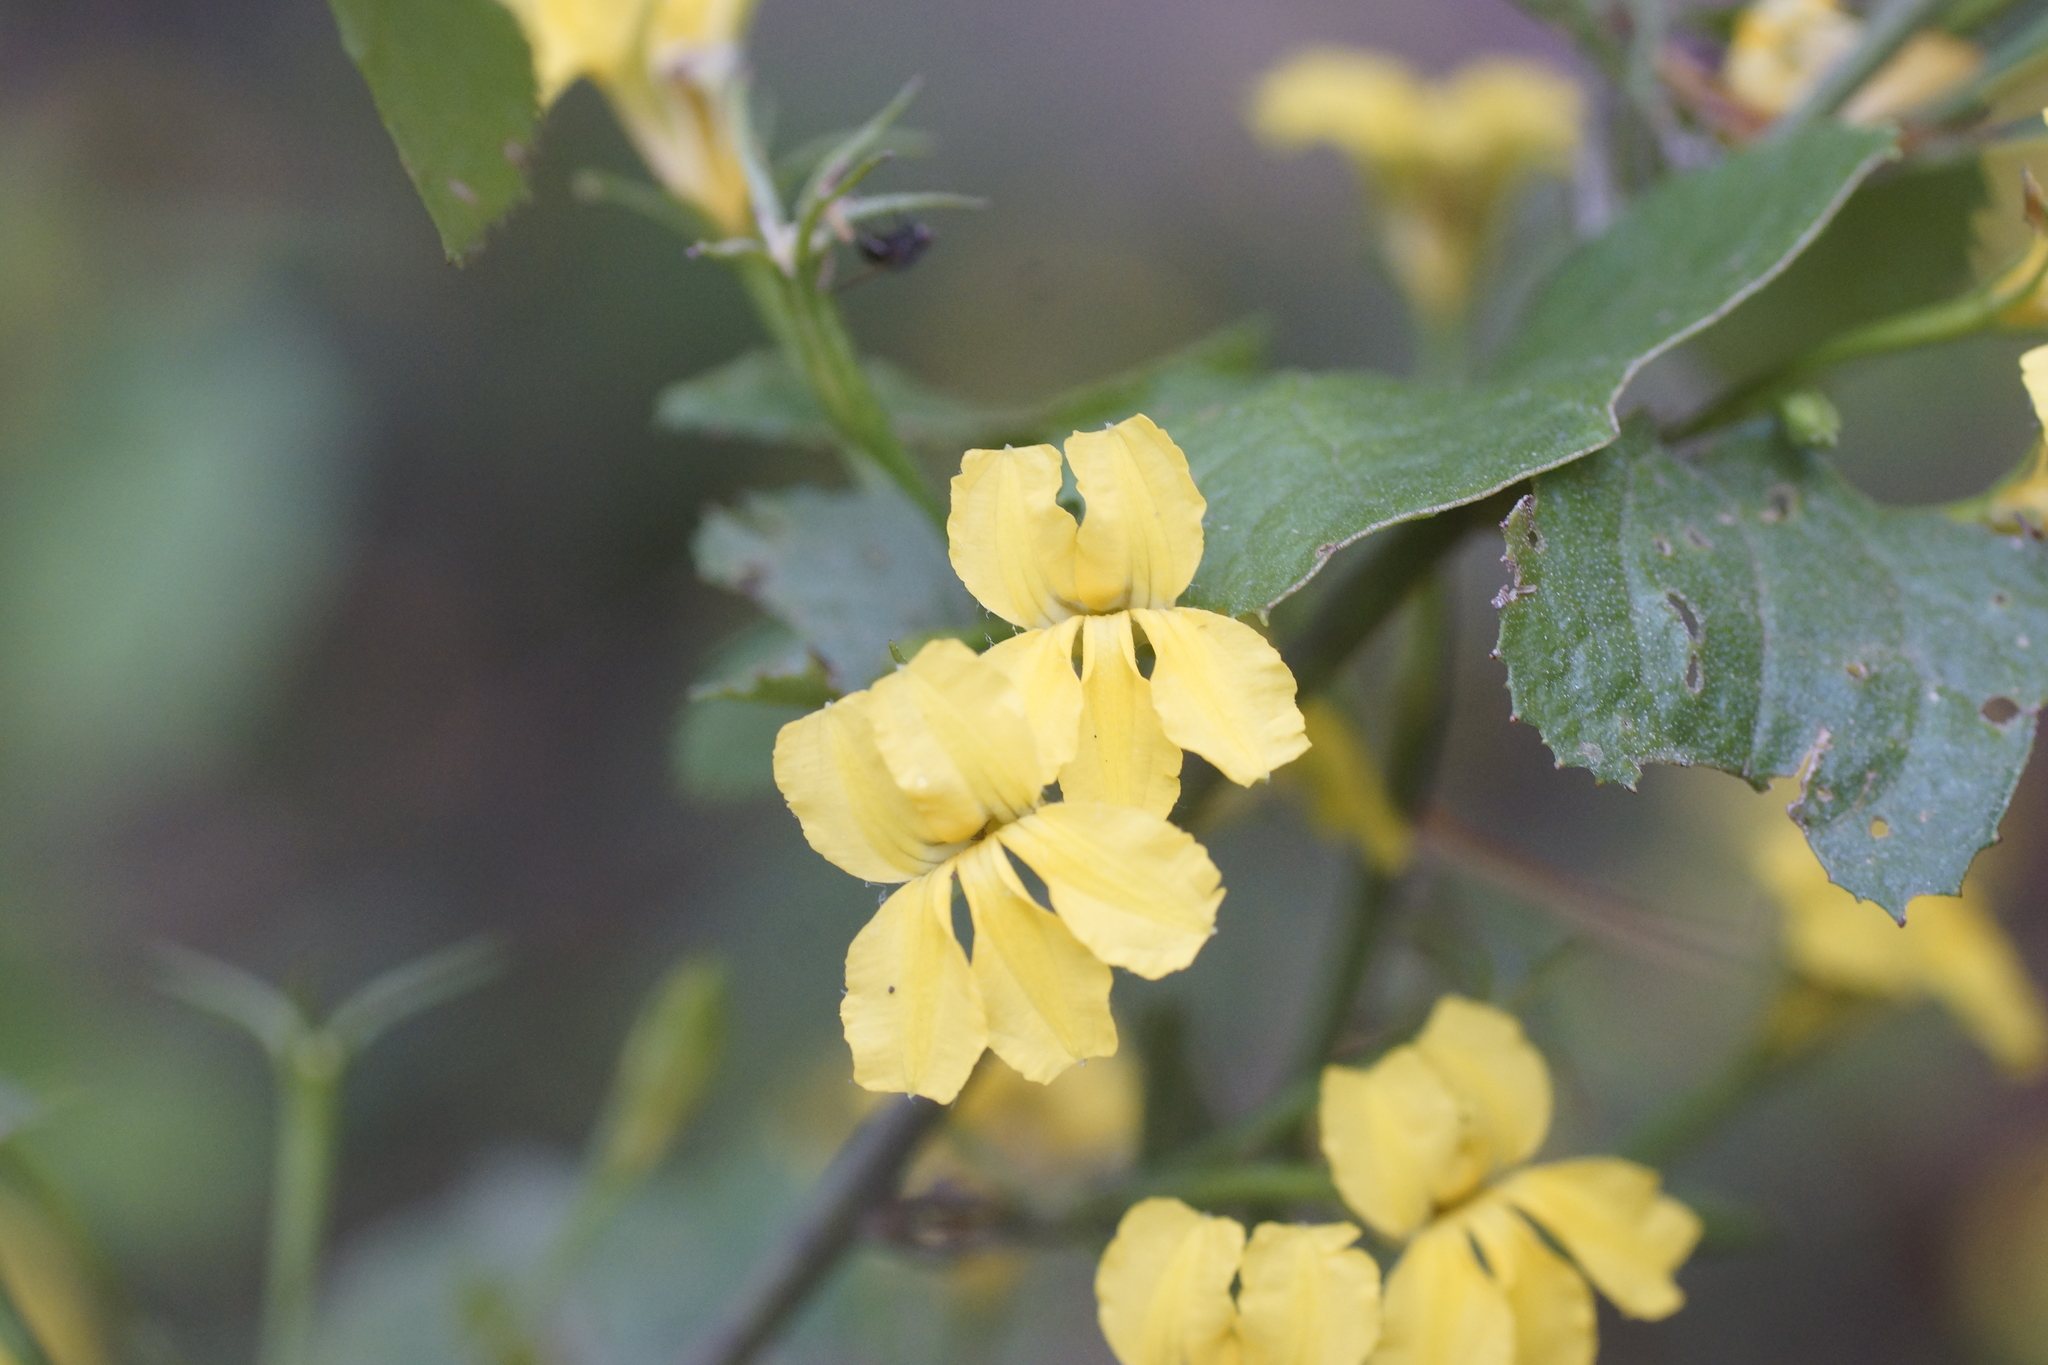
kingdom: Plantae
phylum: Tracheophyta
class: Magnoliopsida
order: Asterales
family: Goodeniaceae
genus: Goodenia
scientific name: Goodenia ovata
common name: Hop goodenia
